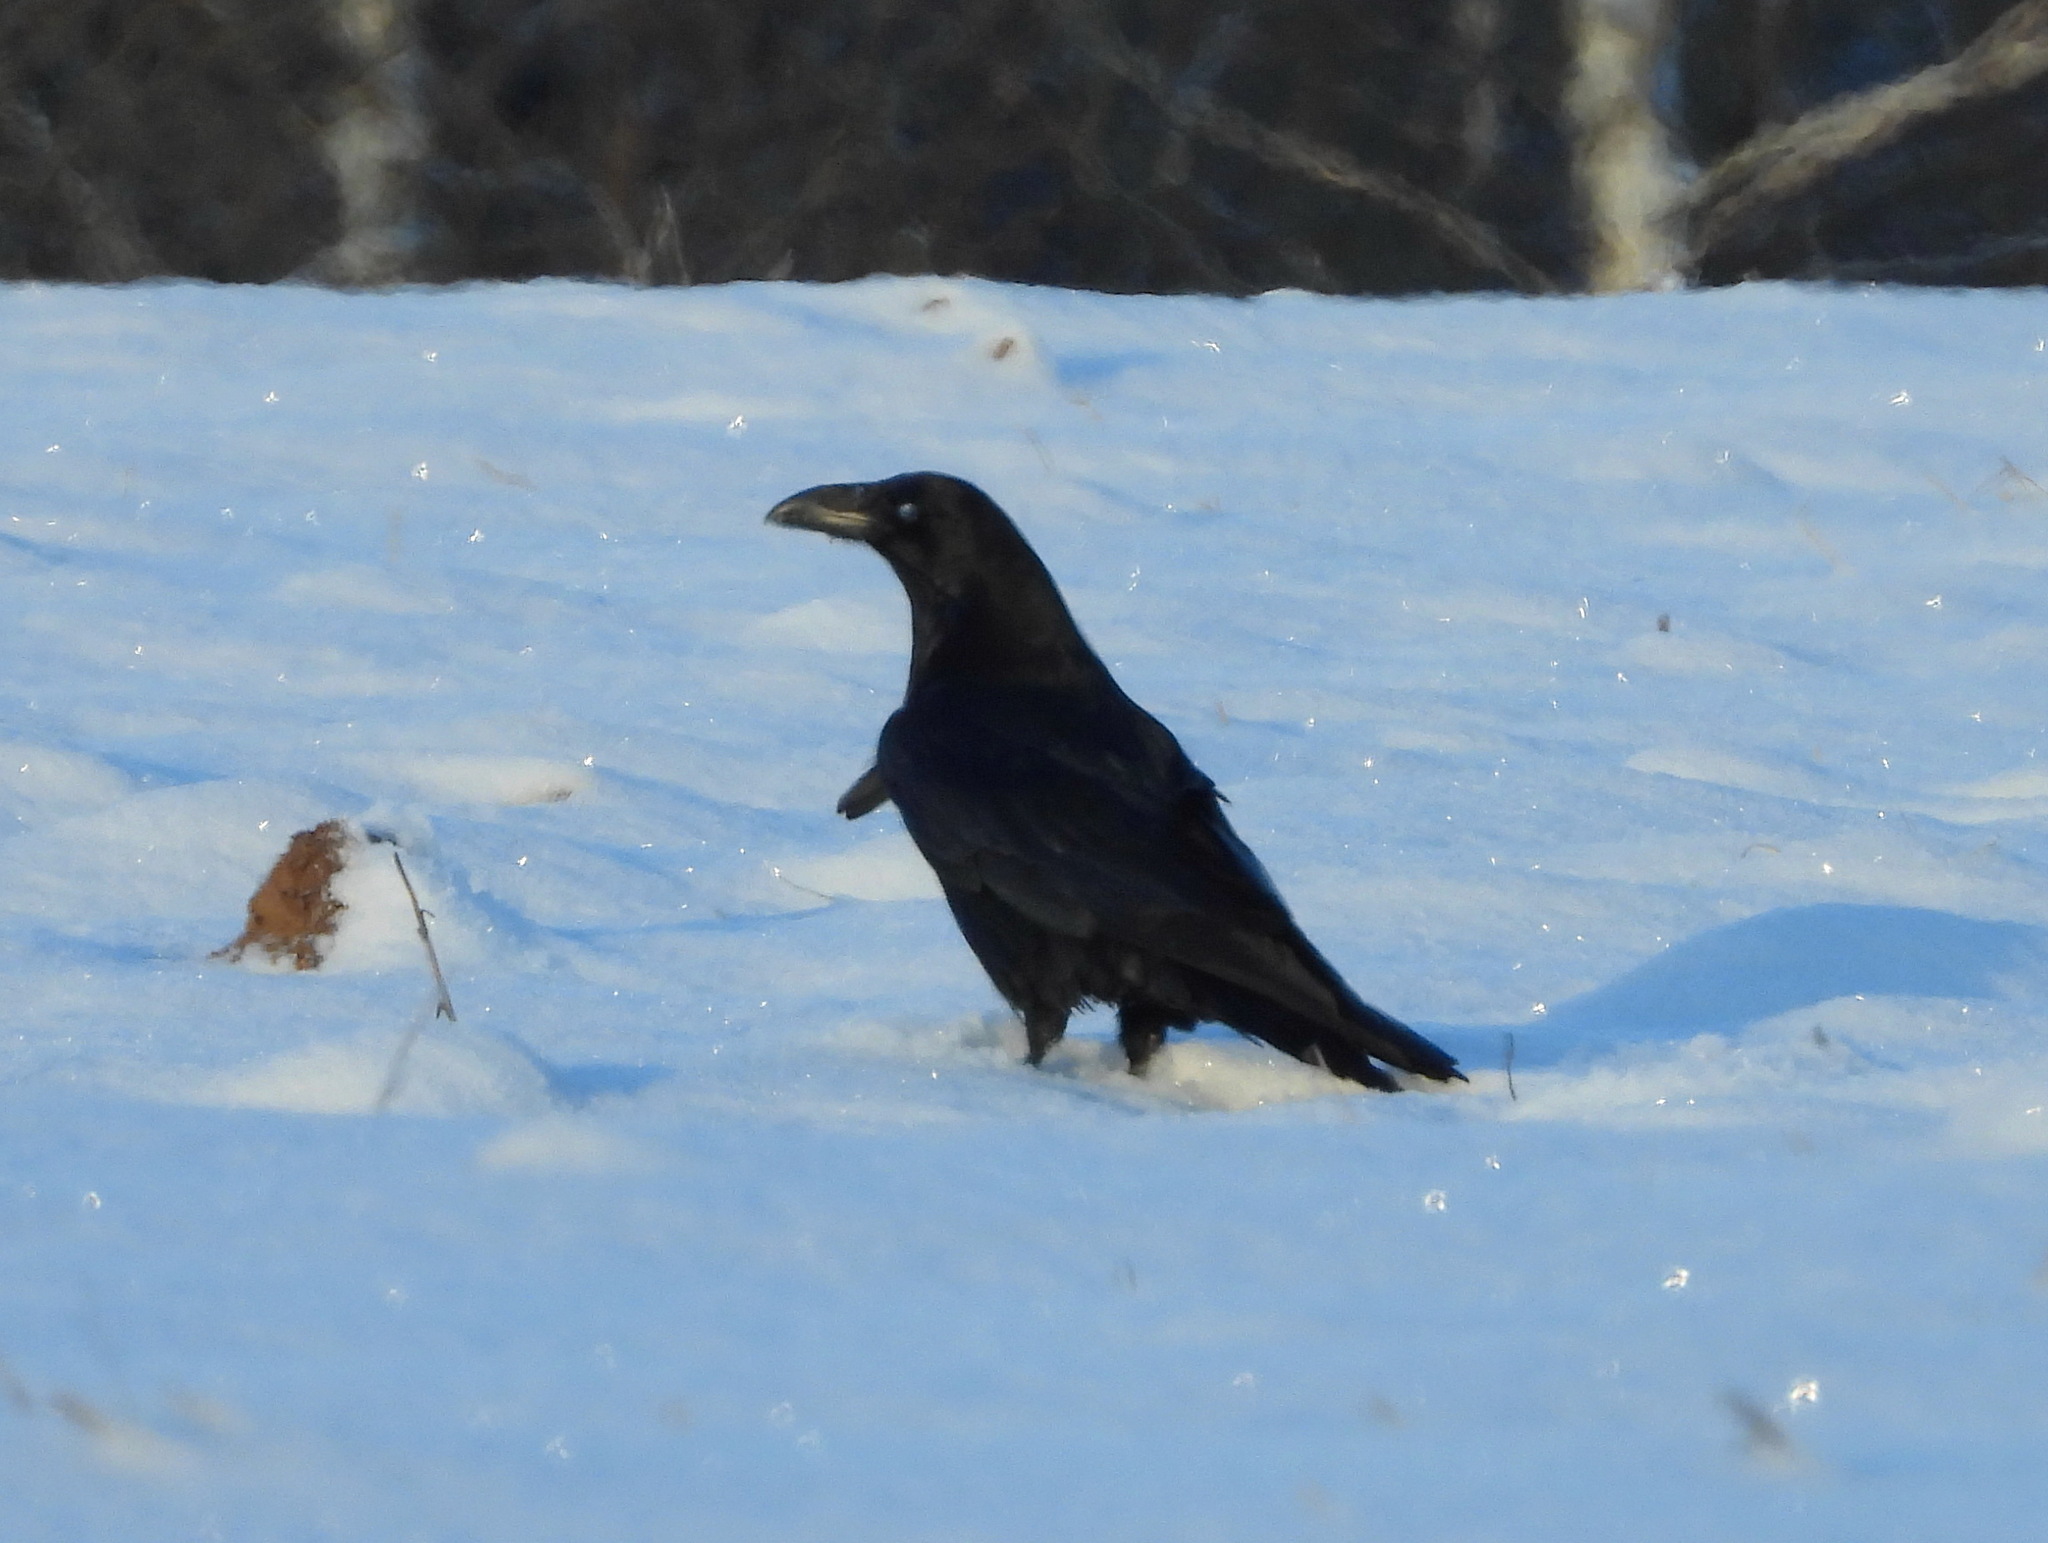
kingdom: Animalia
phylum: Chordata
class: Aves
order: Passeriformes
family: Corvidae
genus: Corvus
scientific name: Corvus corax
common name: Common raven
